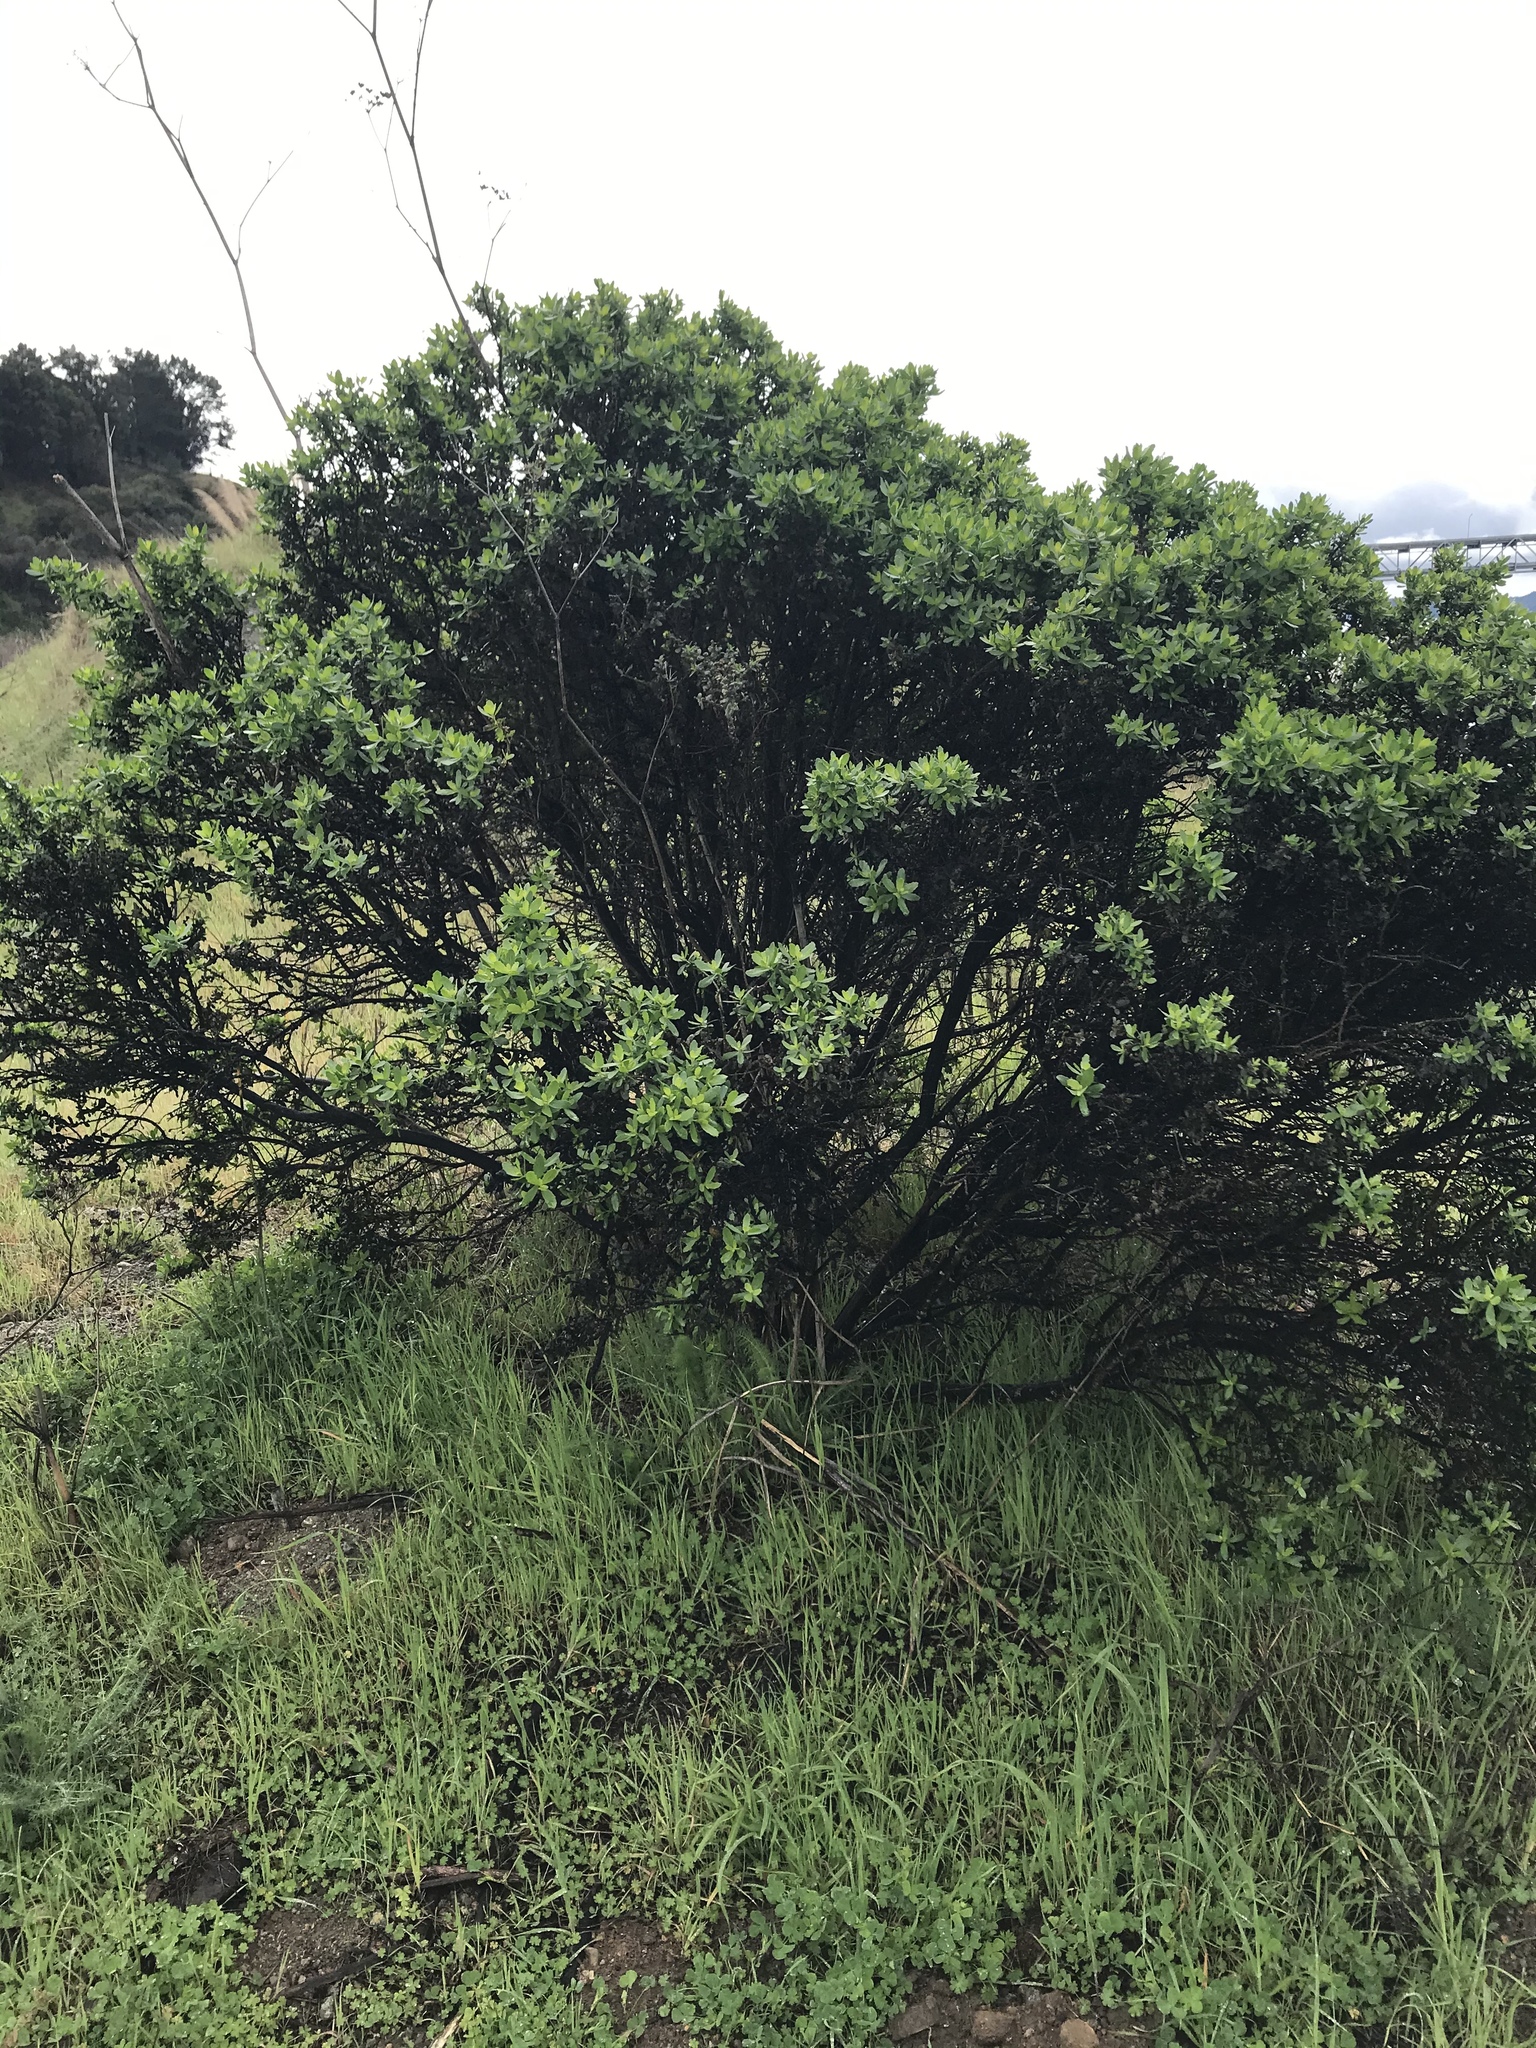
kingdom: Plantae
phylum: Tracheophyta
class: Magnoliopsida
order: Asterales
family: Asteraceae
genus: Baccharis
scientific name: Baccharis pilularis
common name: Coyotebrush
